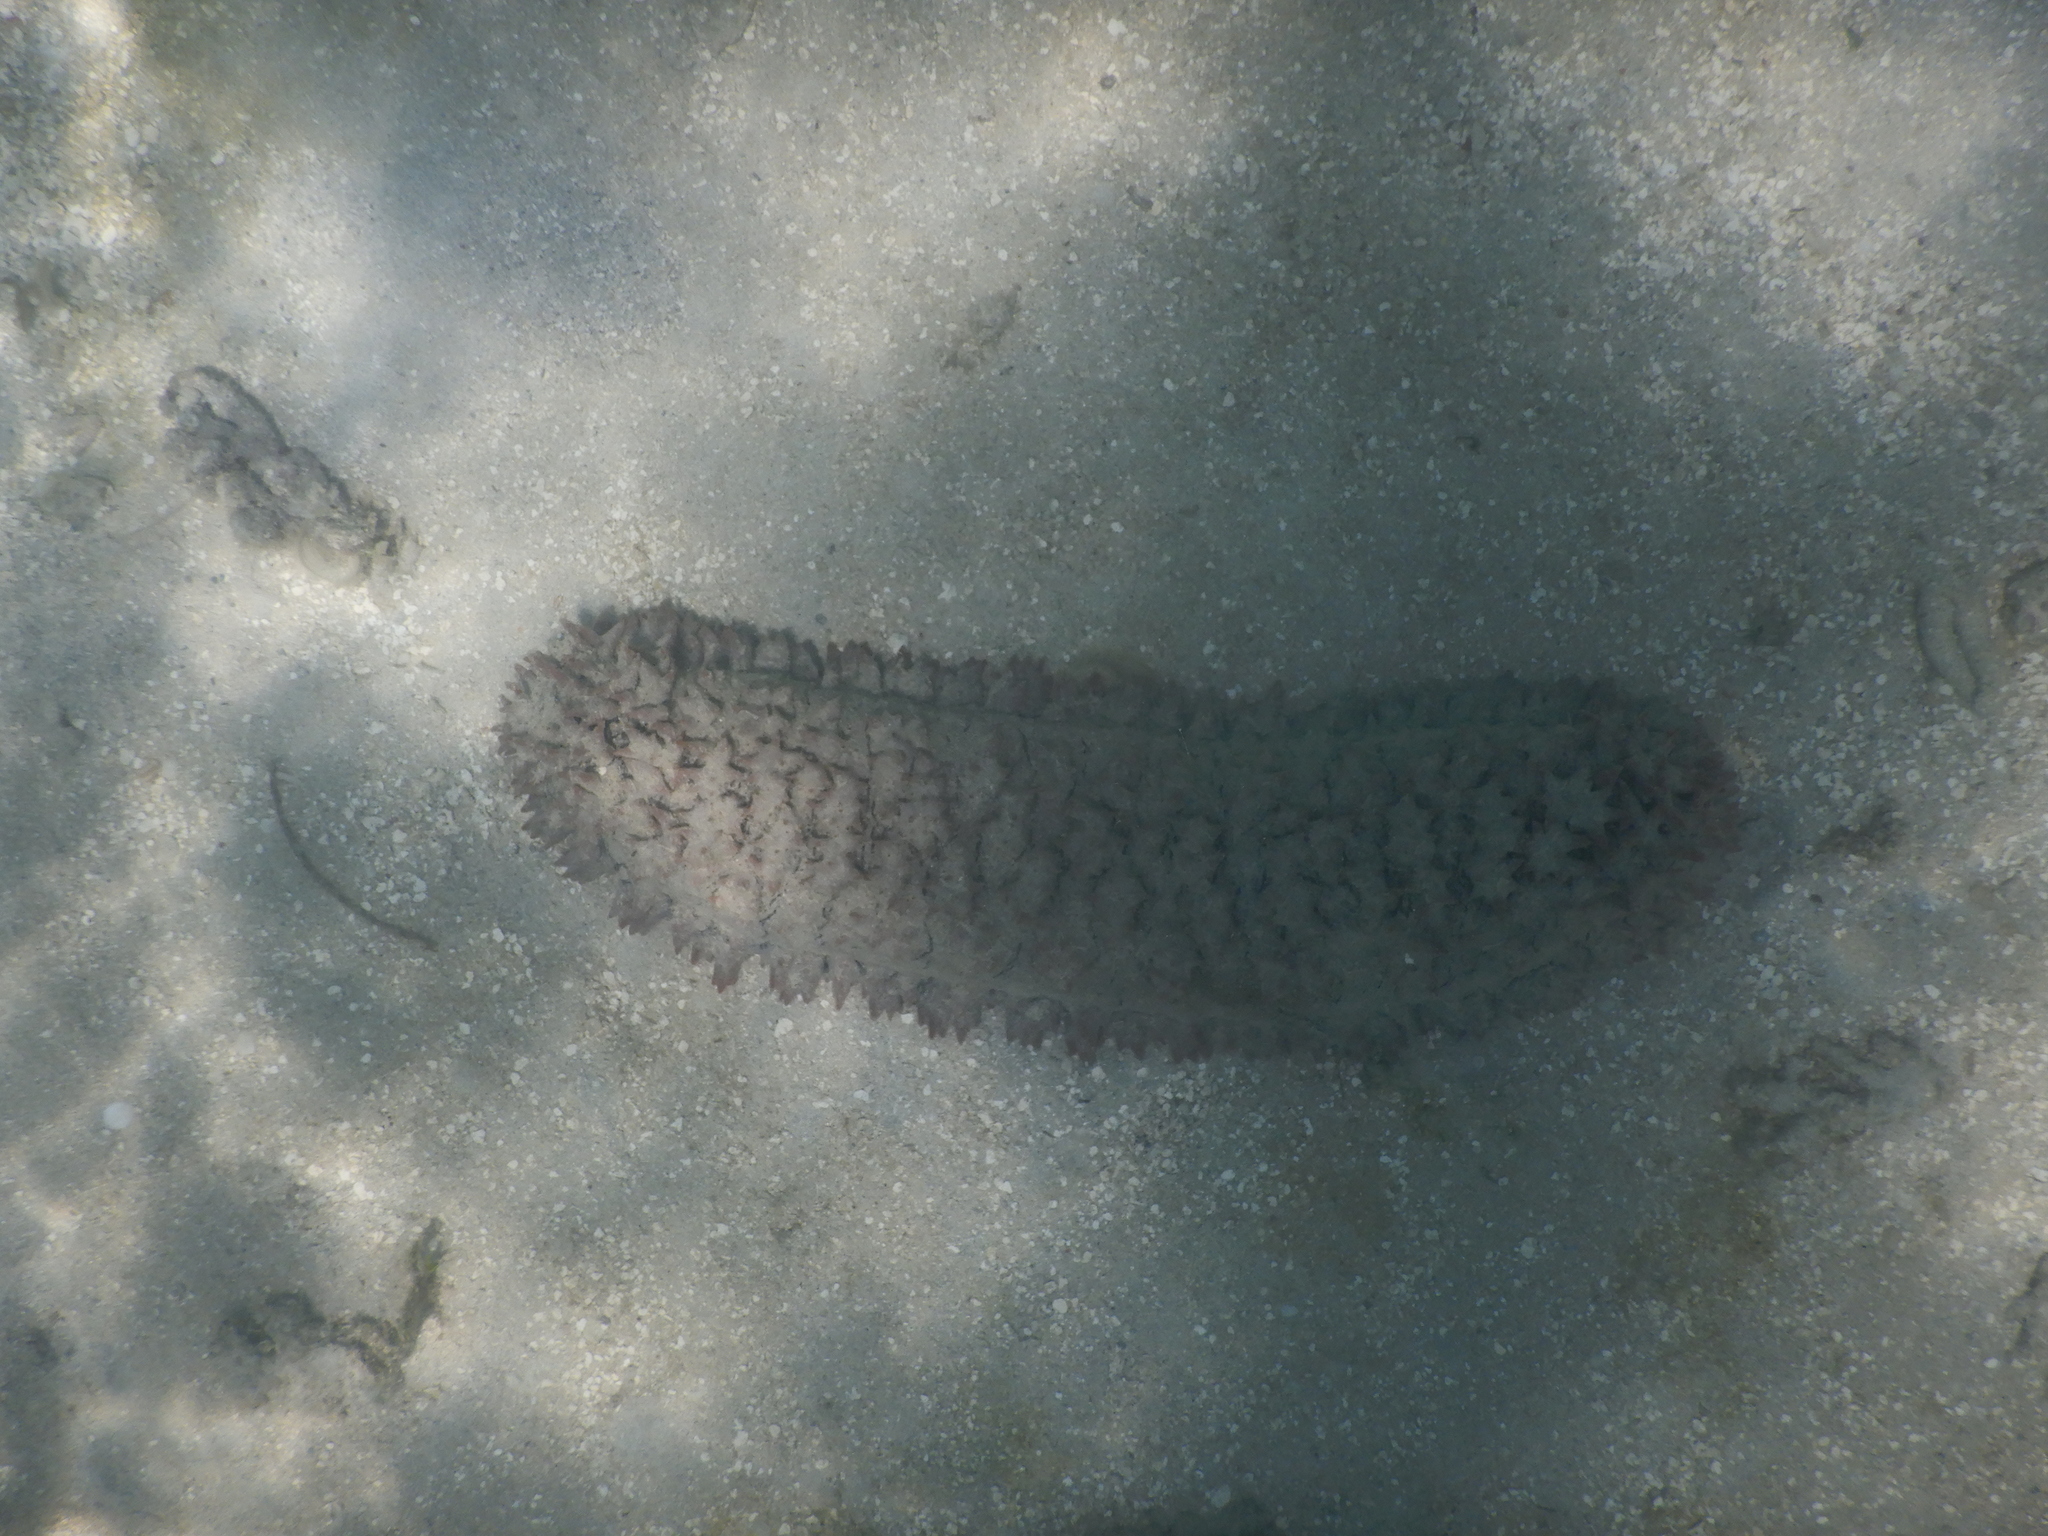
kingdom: Animalia
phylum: Echinodermata
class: Holothuroidea
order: Synallactida
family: Stichopodidae
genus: Thelenota
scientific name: Thelenota ananas
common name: Prickly redfish
